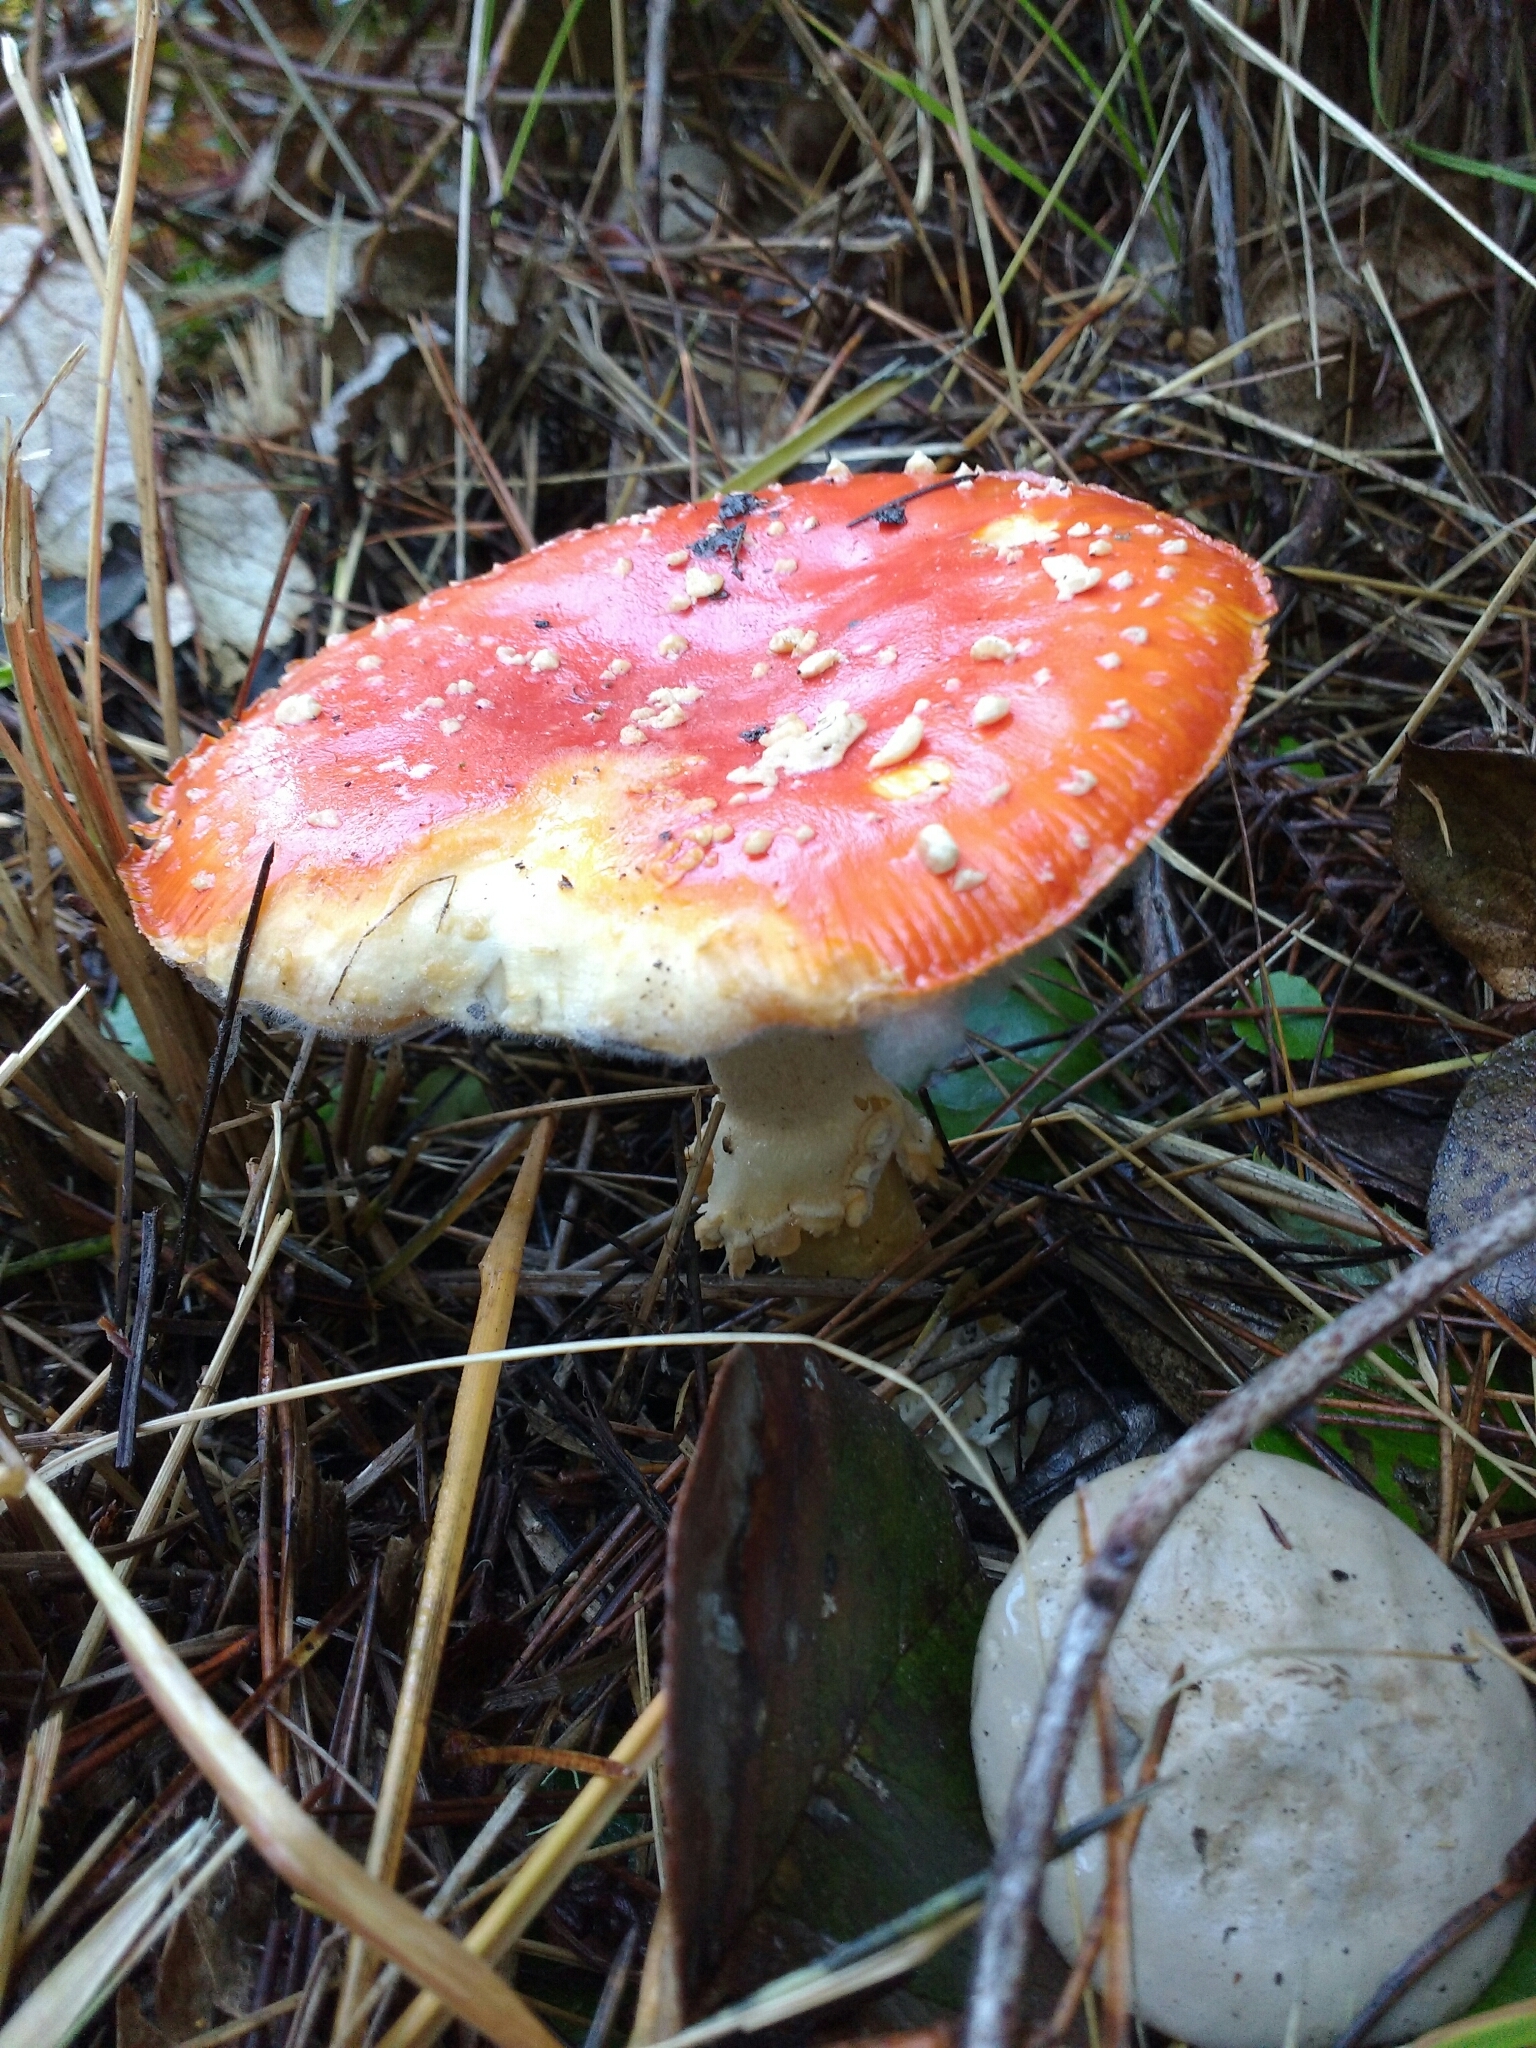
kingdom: Fungi
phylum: Basidiomycota
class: Agaricomycetes
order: Agaricales
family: Amanitaceae
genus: Amanita
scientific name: Amanita muscaria
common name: Fly agaric
